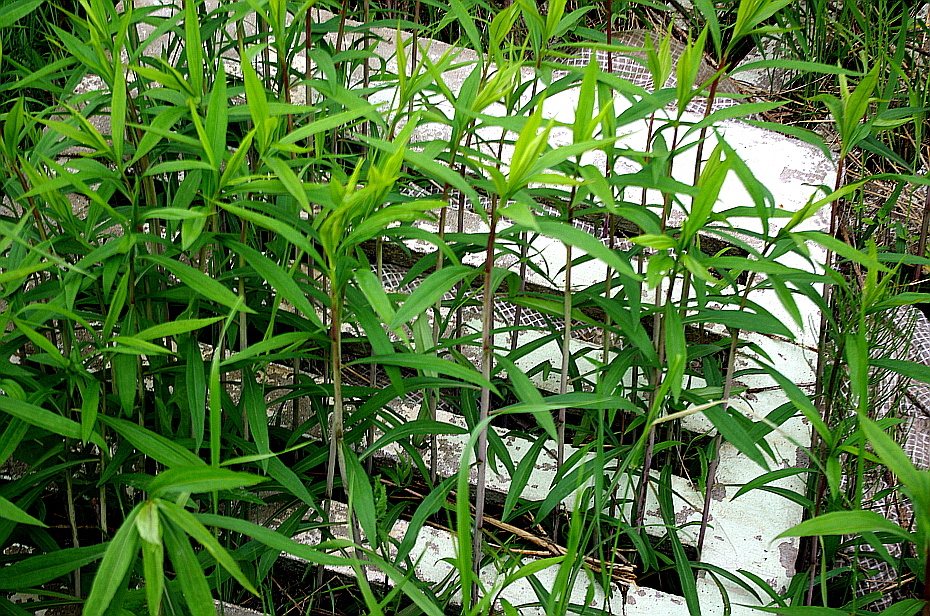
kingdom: Plantae
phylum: Tracheophyta
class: Magnoliopsida
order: Asterales
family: Asteraceae
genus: Solidago
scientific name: Solidago gigantea
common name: Giant goldenrod
